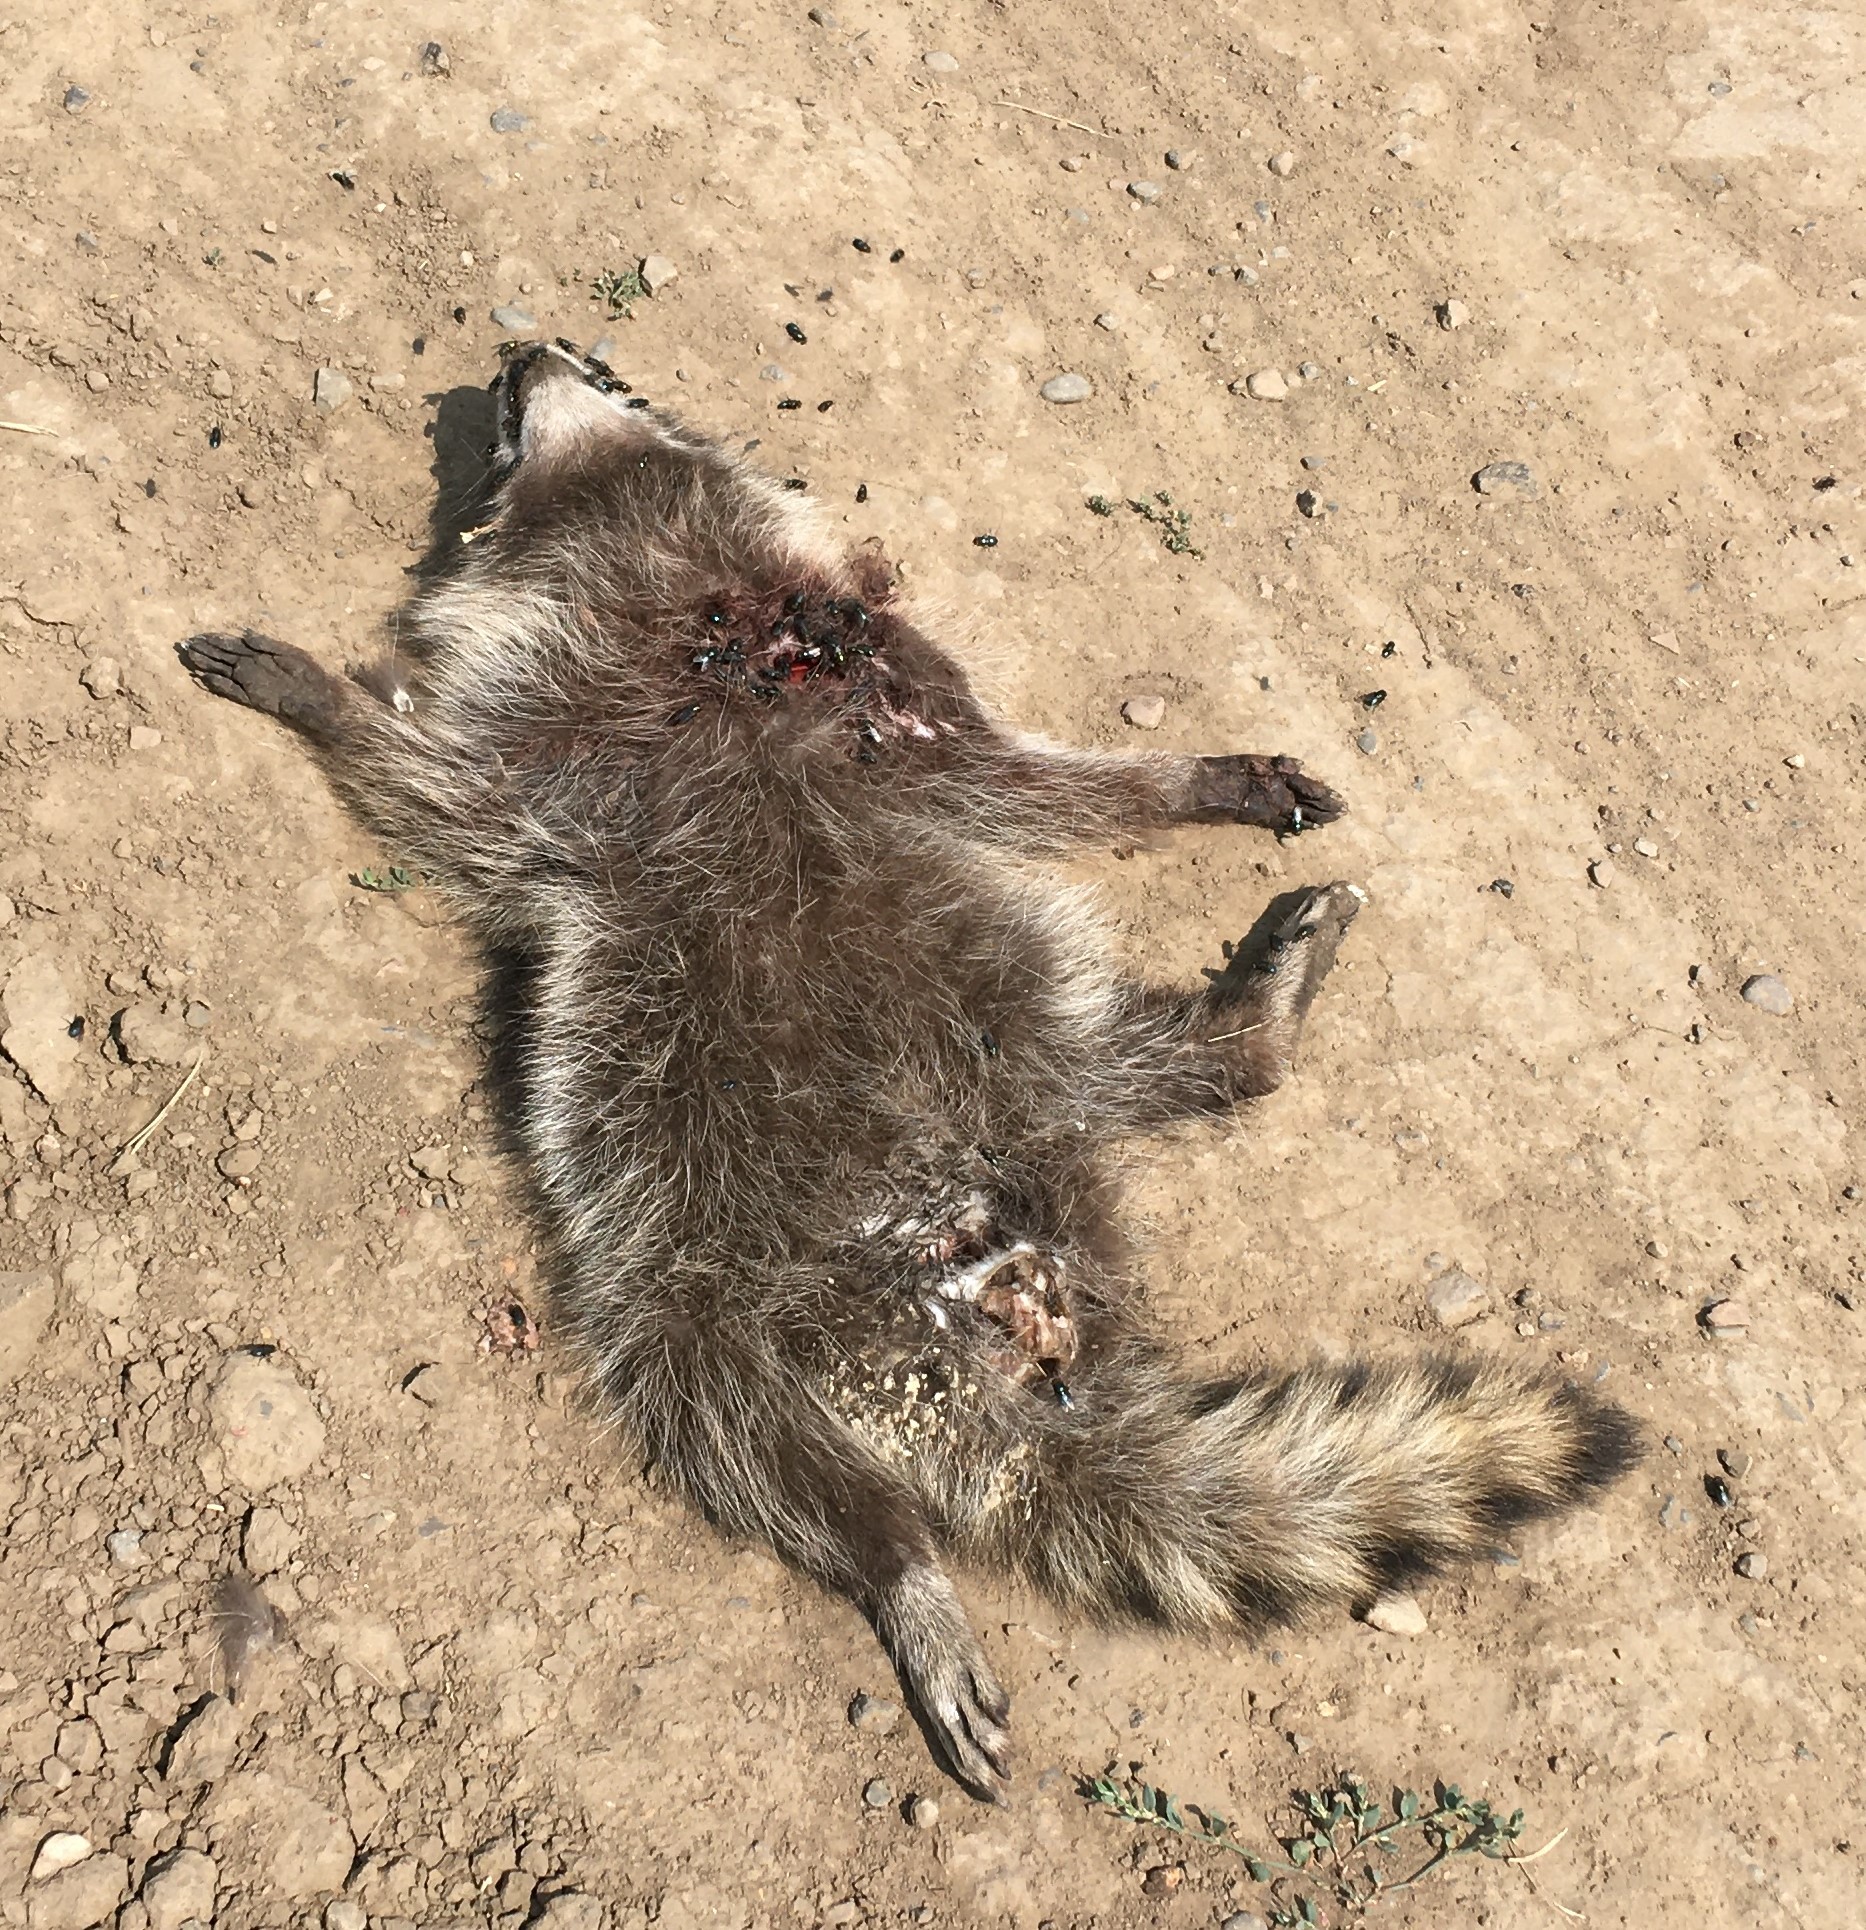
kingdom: Animalia
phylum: Chordata
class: Mammalia
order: Carnivora
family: Procyonidae
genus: Procyon
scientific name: Procyon lotor
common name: Raccoon
